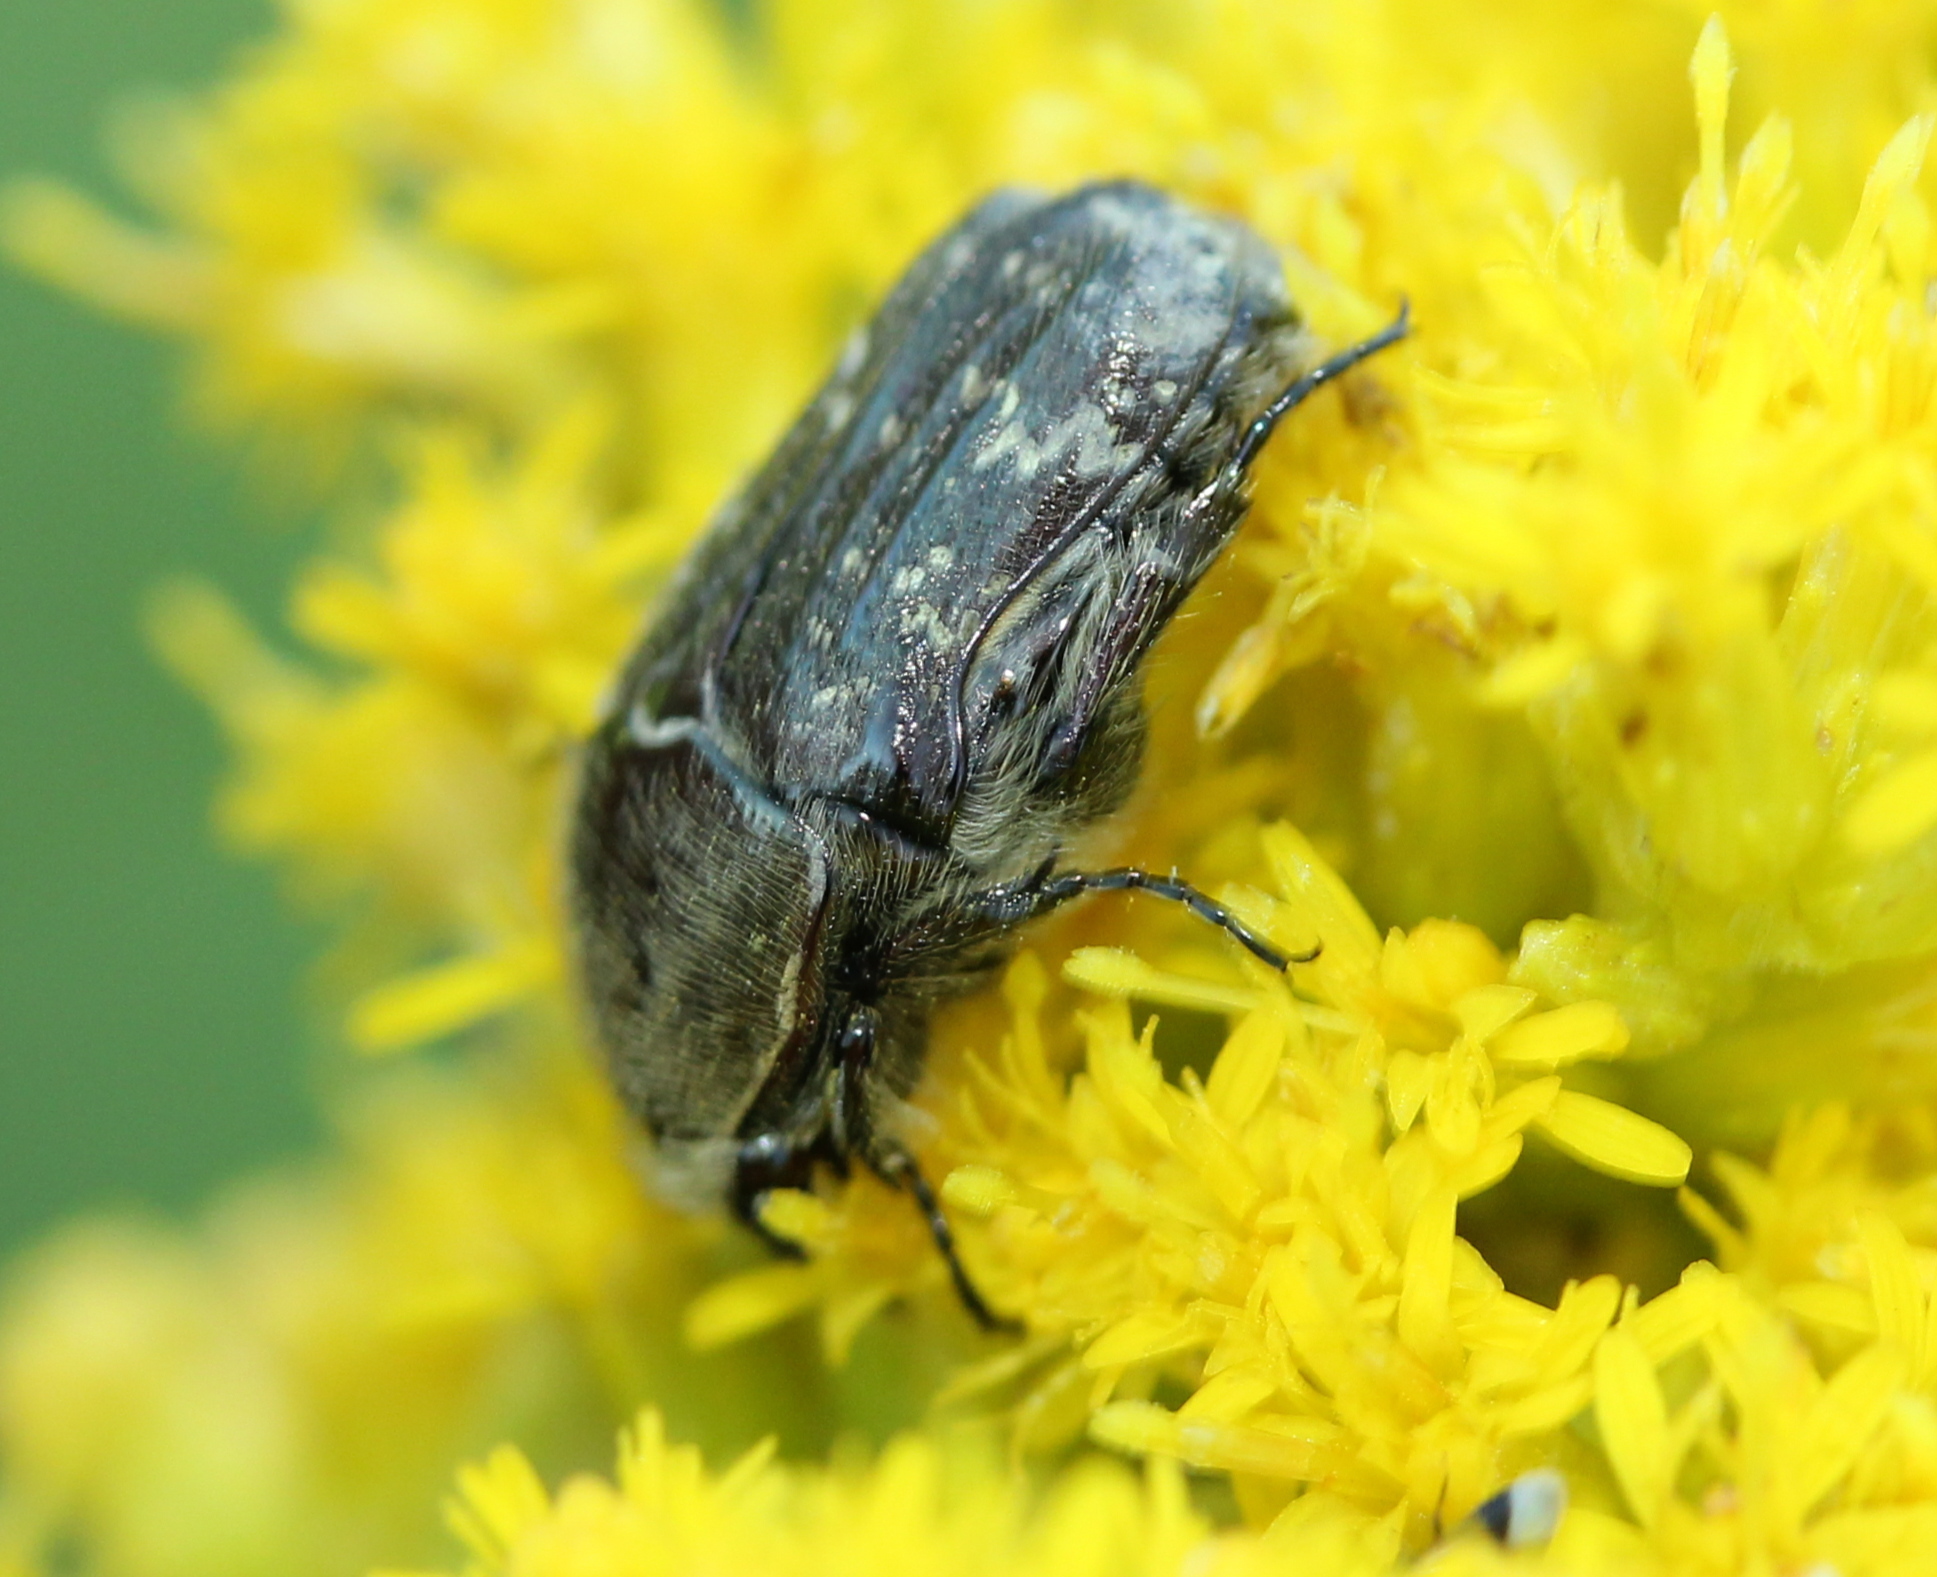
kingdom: Animalia
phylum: Arthropoda
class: Insecta
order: Coleoptera
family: Scarabaeidae
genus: Euphoria
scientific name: Euphoria sepulcralis
